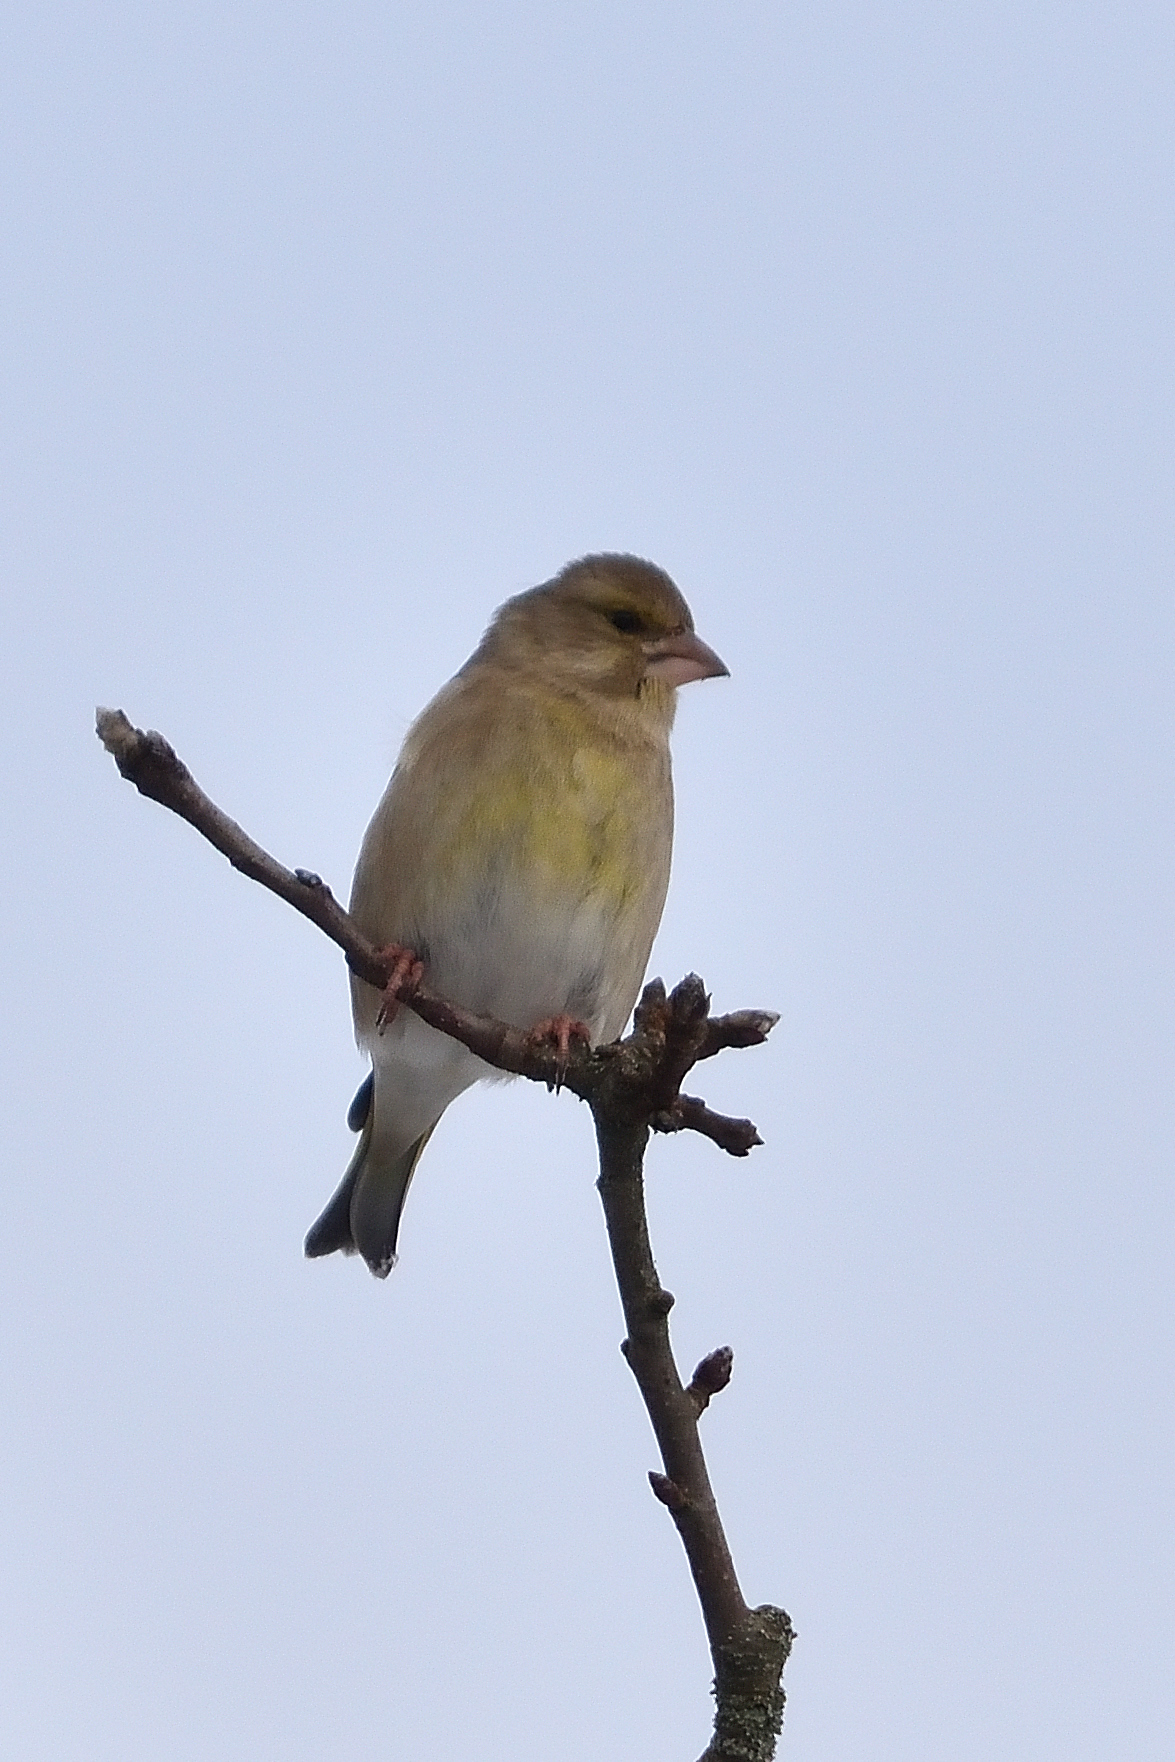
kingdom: Plantae
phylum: Tracheophyta
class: Liliopsida
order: Poales
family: Poaceae
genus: Chloris
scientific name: Chloris chloris
